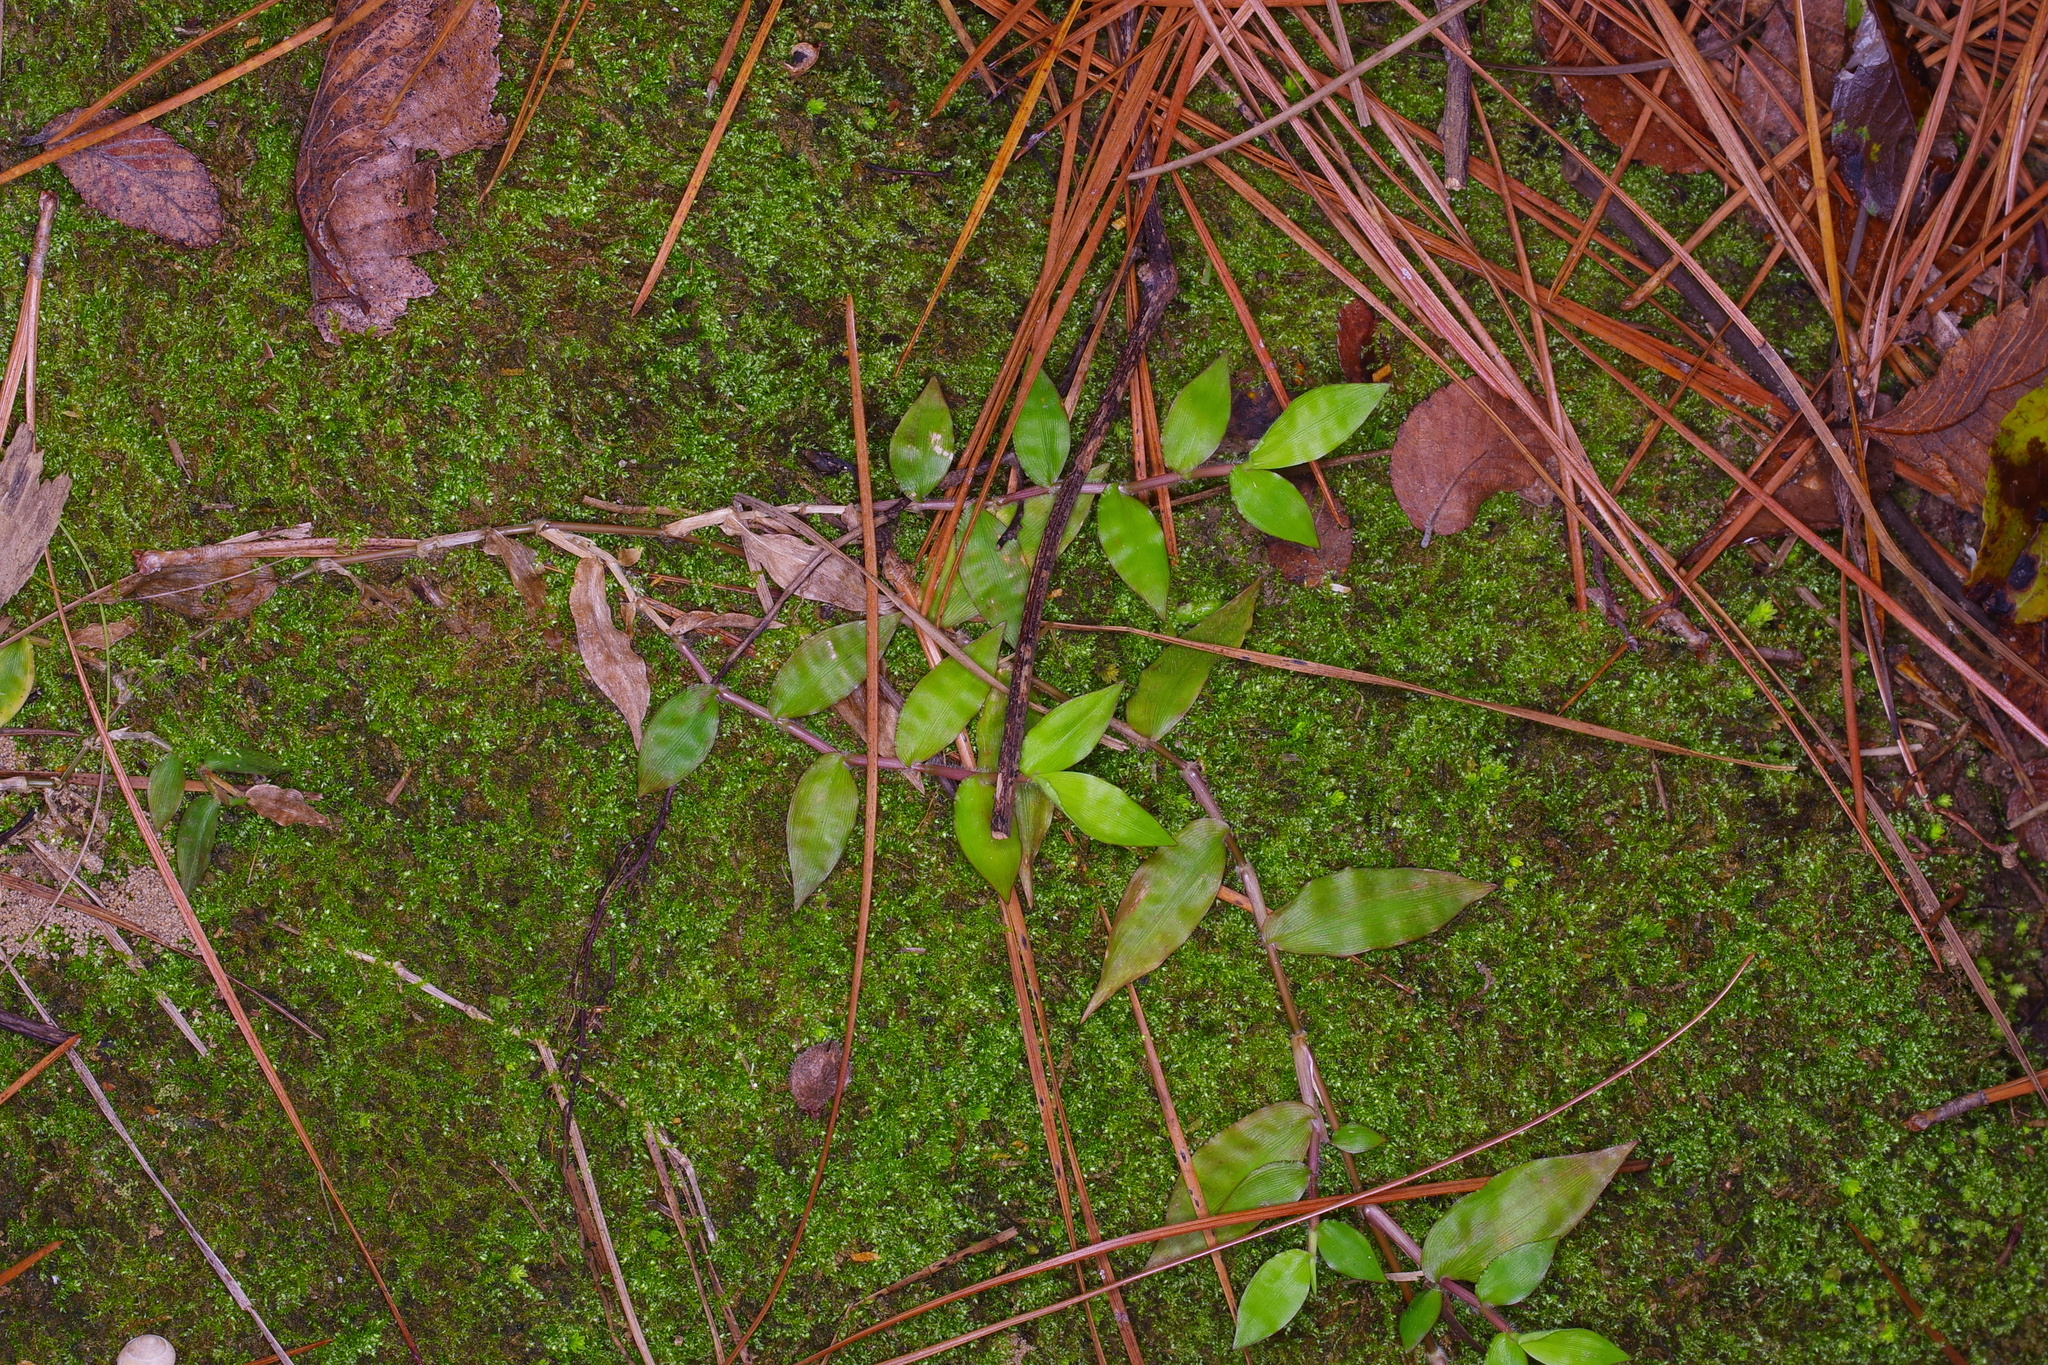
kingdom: Plantae
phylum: Tracheophyta
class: Liliopsida
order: Poales
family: Poaceae
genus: Oplismenus
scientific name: Oplismenus hirtellus
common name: Basketgrass
